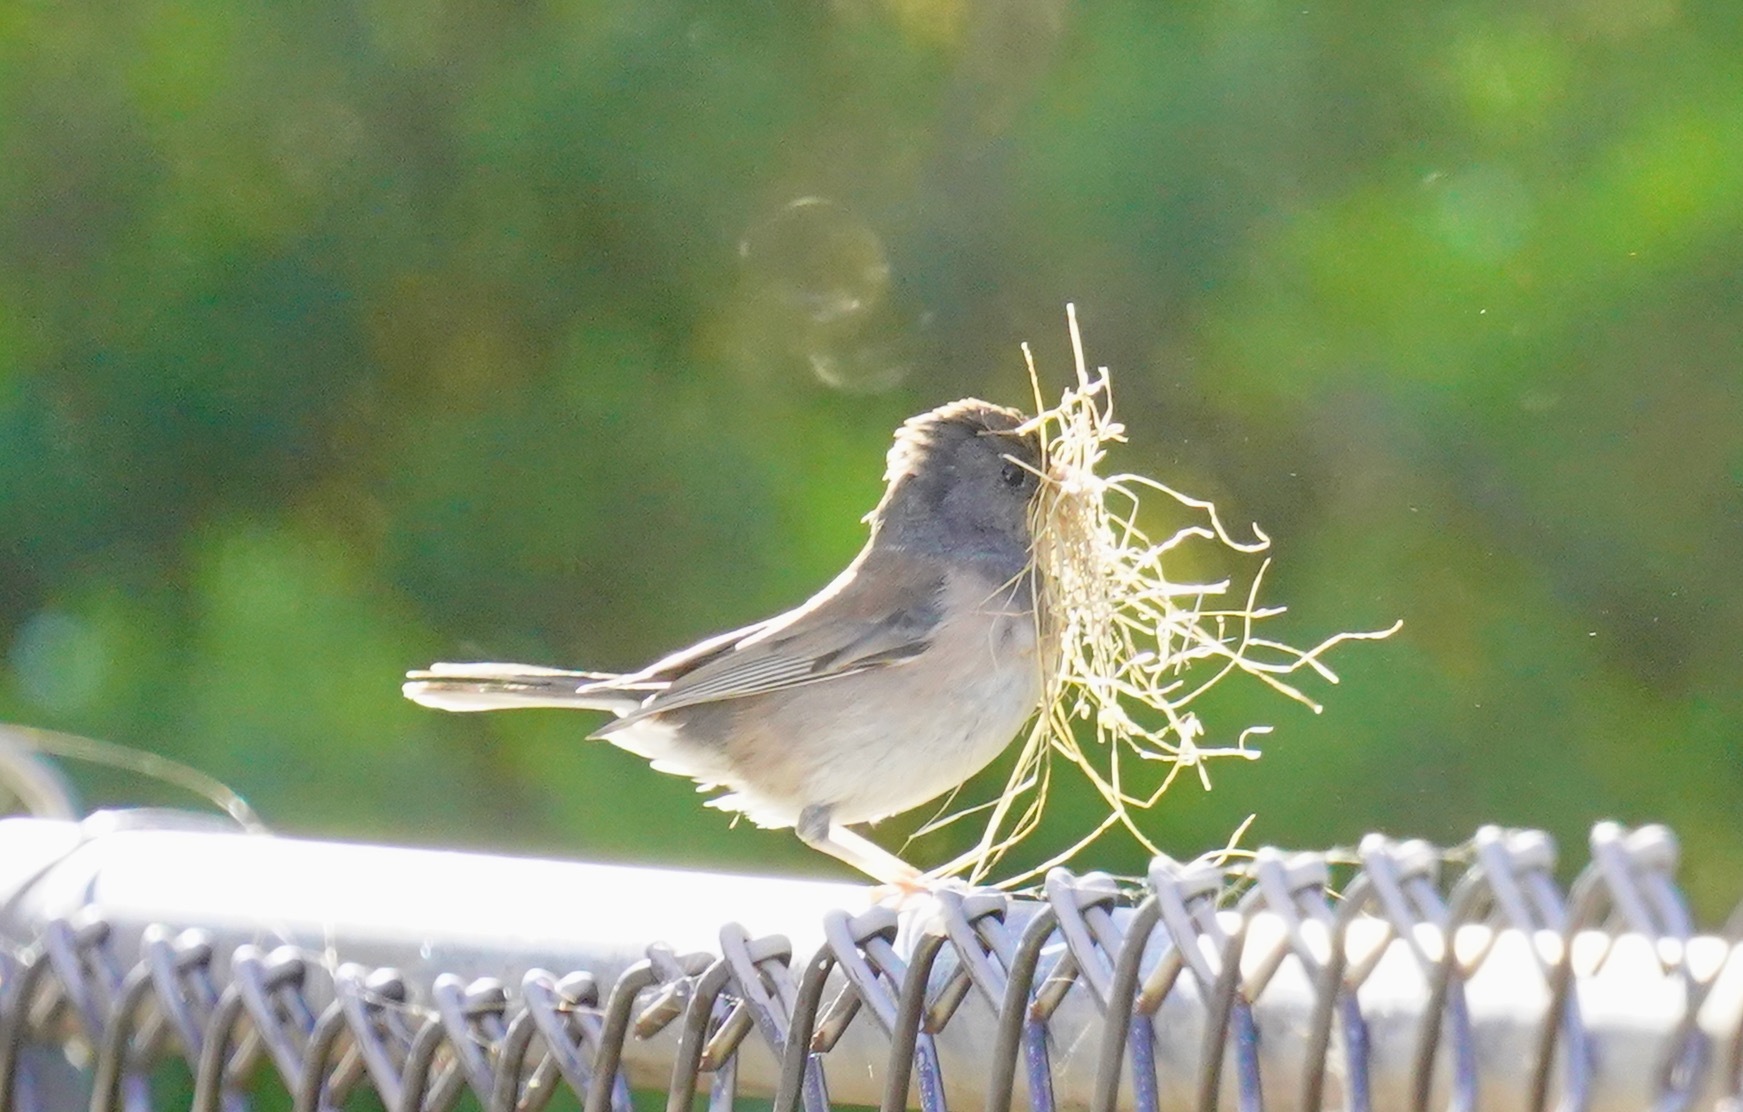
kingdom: Animalia
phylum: Chordata
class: Aves
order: Passeriformes
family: Passerellidae
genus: Junco
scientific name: Junco hyemalis
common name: Dark-eyed junco
